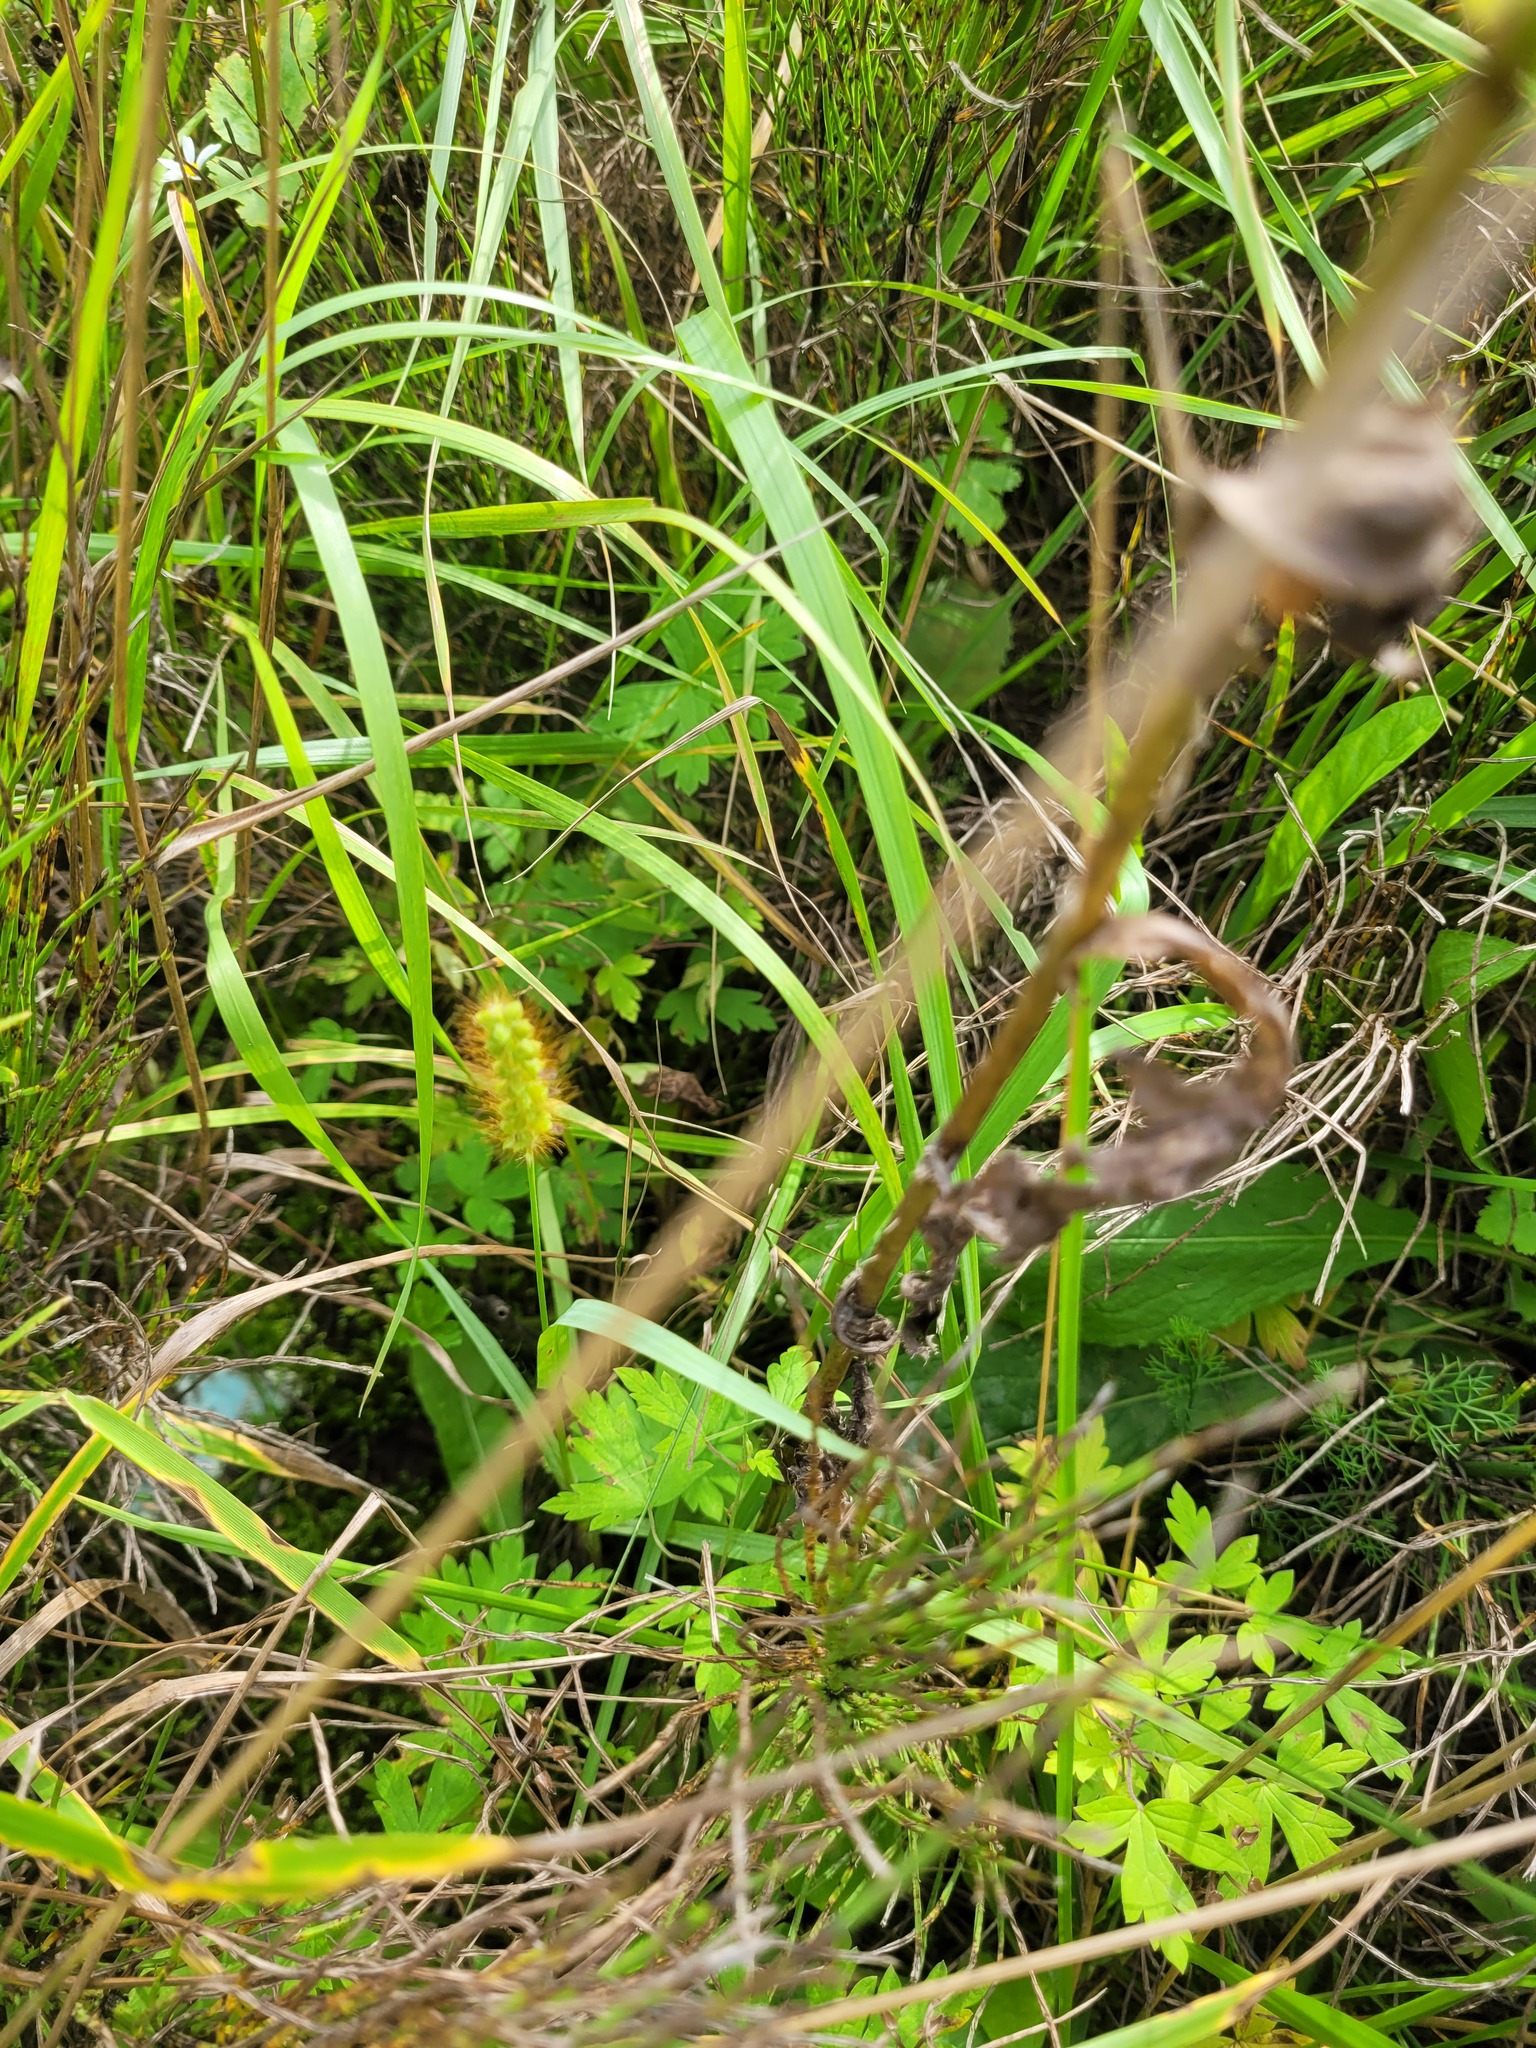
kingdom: Plantae
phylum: Tracheophyta
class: Liliopsida
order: Poales
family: Poaceae
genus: Setaria
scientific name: Setaria pumila
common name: Yellow bristle-grass
